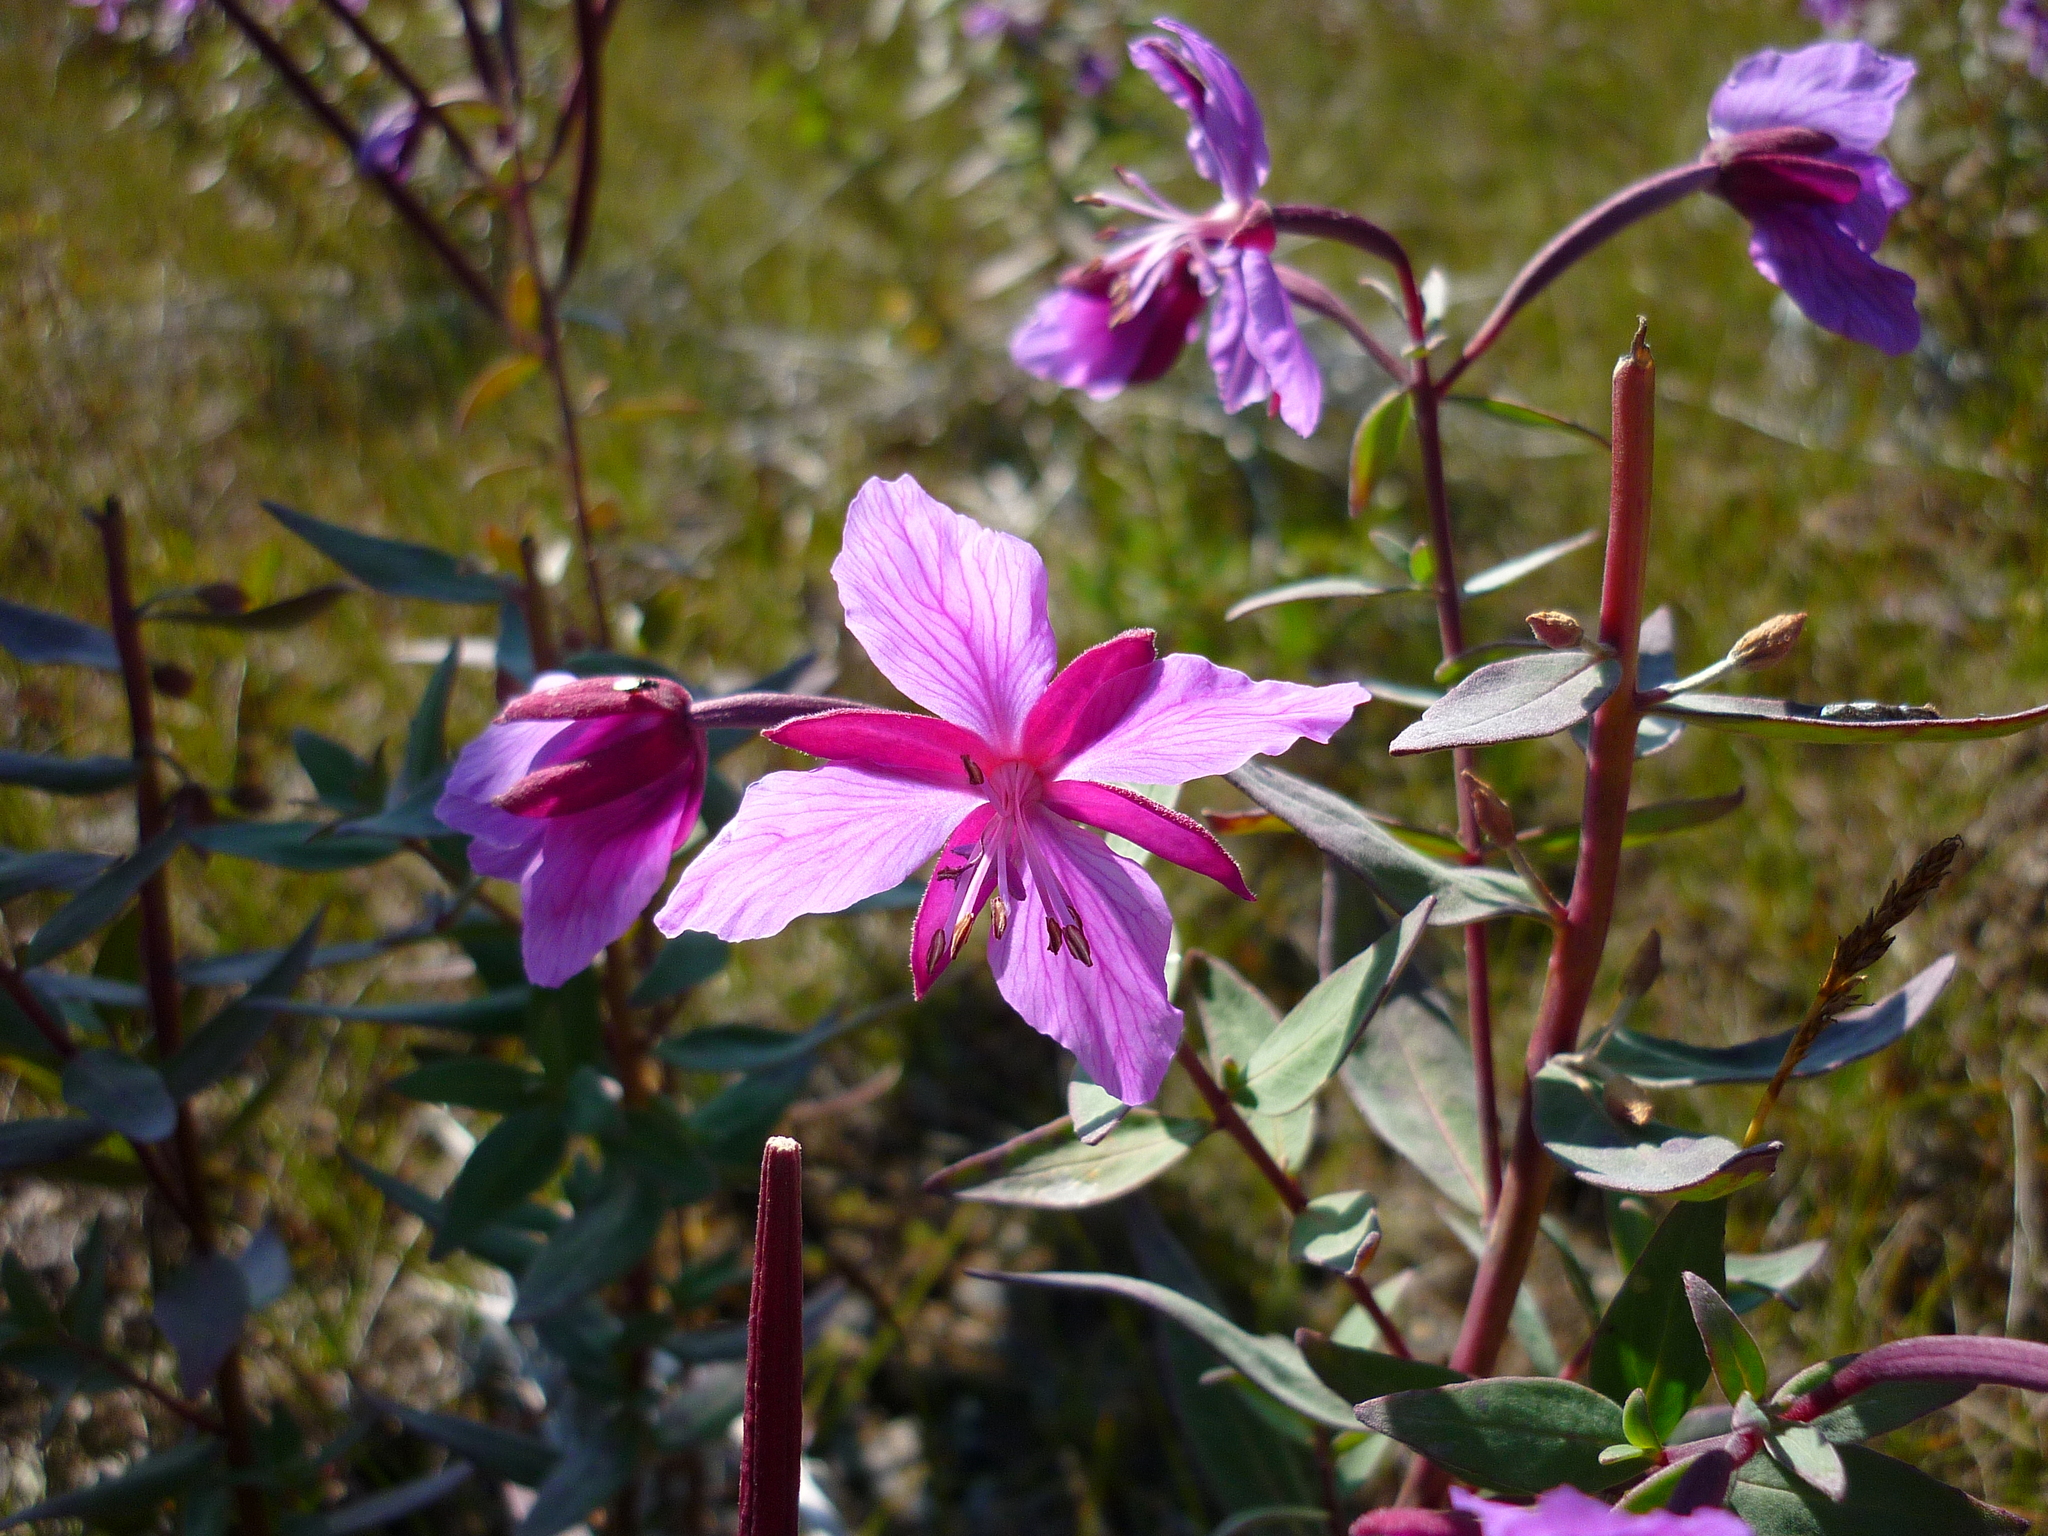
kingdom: Plantae
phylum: Tracheophyta
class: Magnoliopsida
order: Myrtales
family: Onagraceae
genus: Chamaenerion
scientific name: Chamaenerion latifolium
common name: Dwarf fireweed
